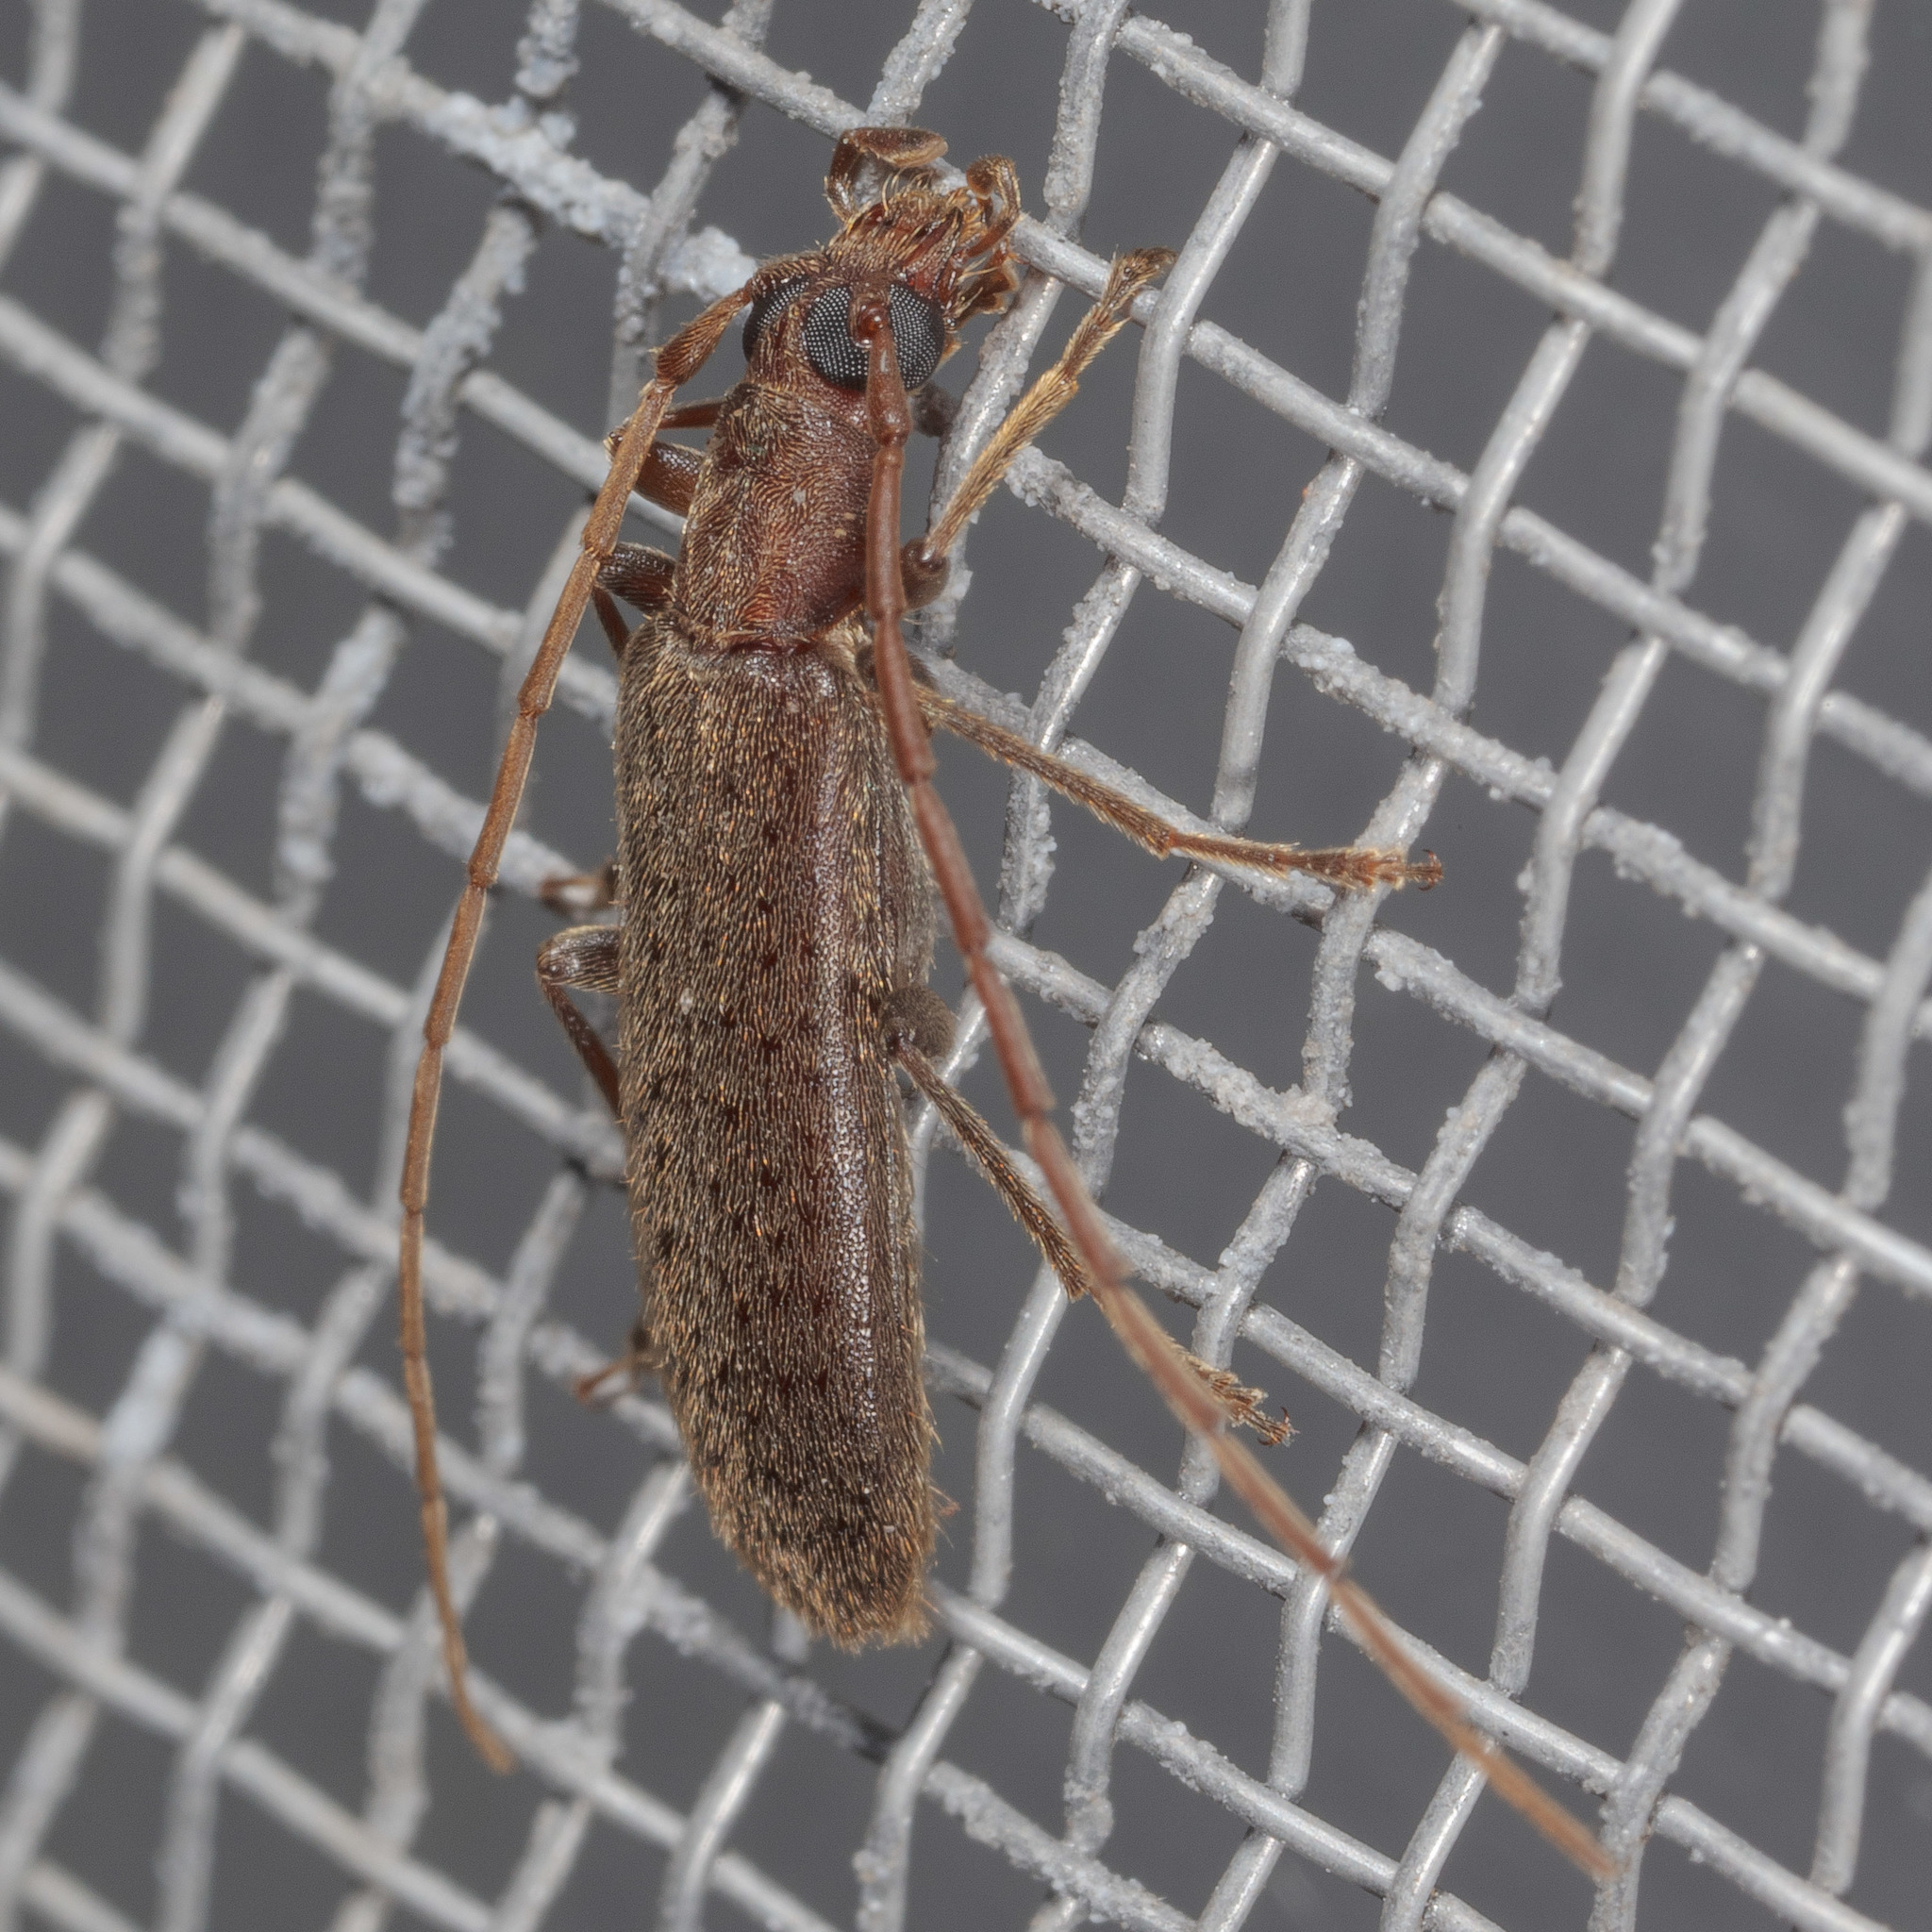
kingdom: Animalia
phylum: Arthropoda
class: Insecta
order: Coleoptera
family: Oedemeridae
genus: Sparedrus
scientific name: Sparedrus aspersus
